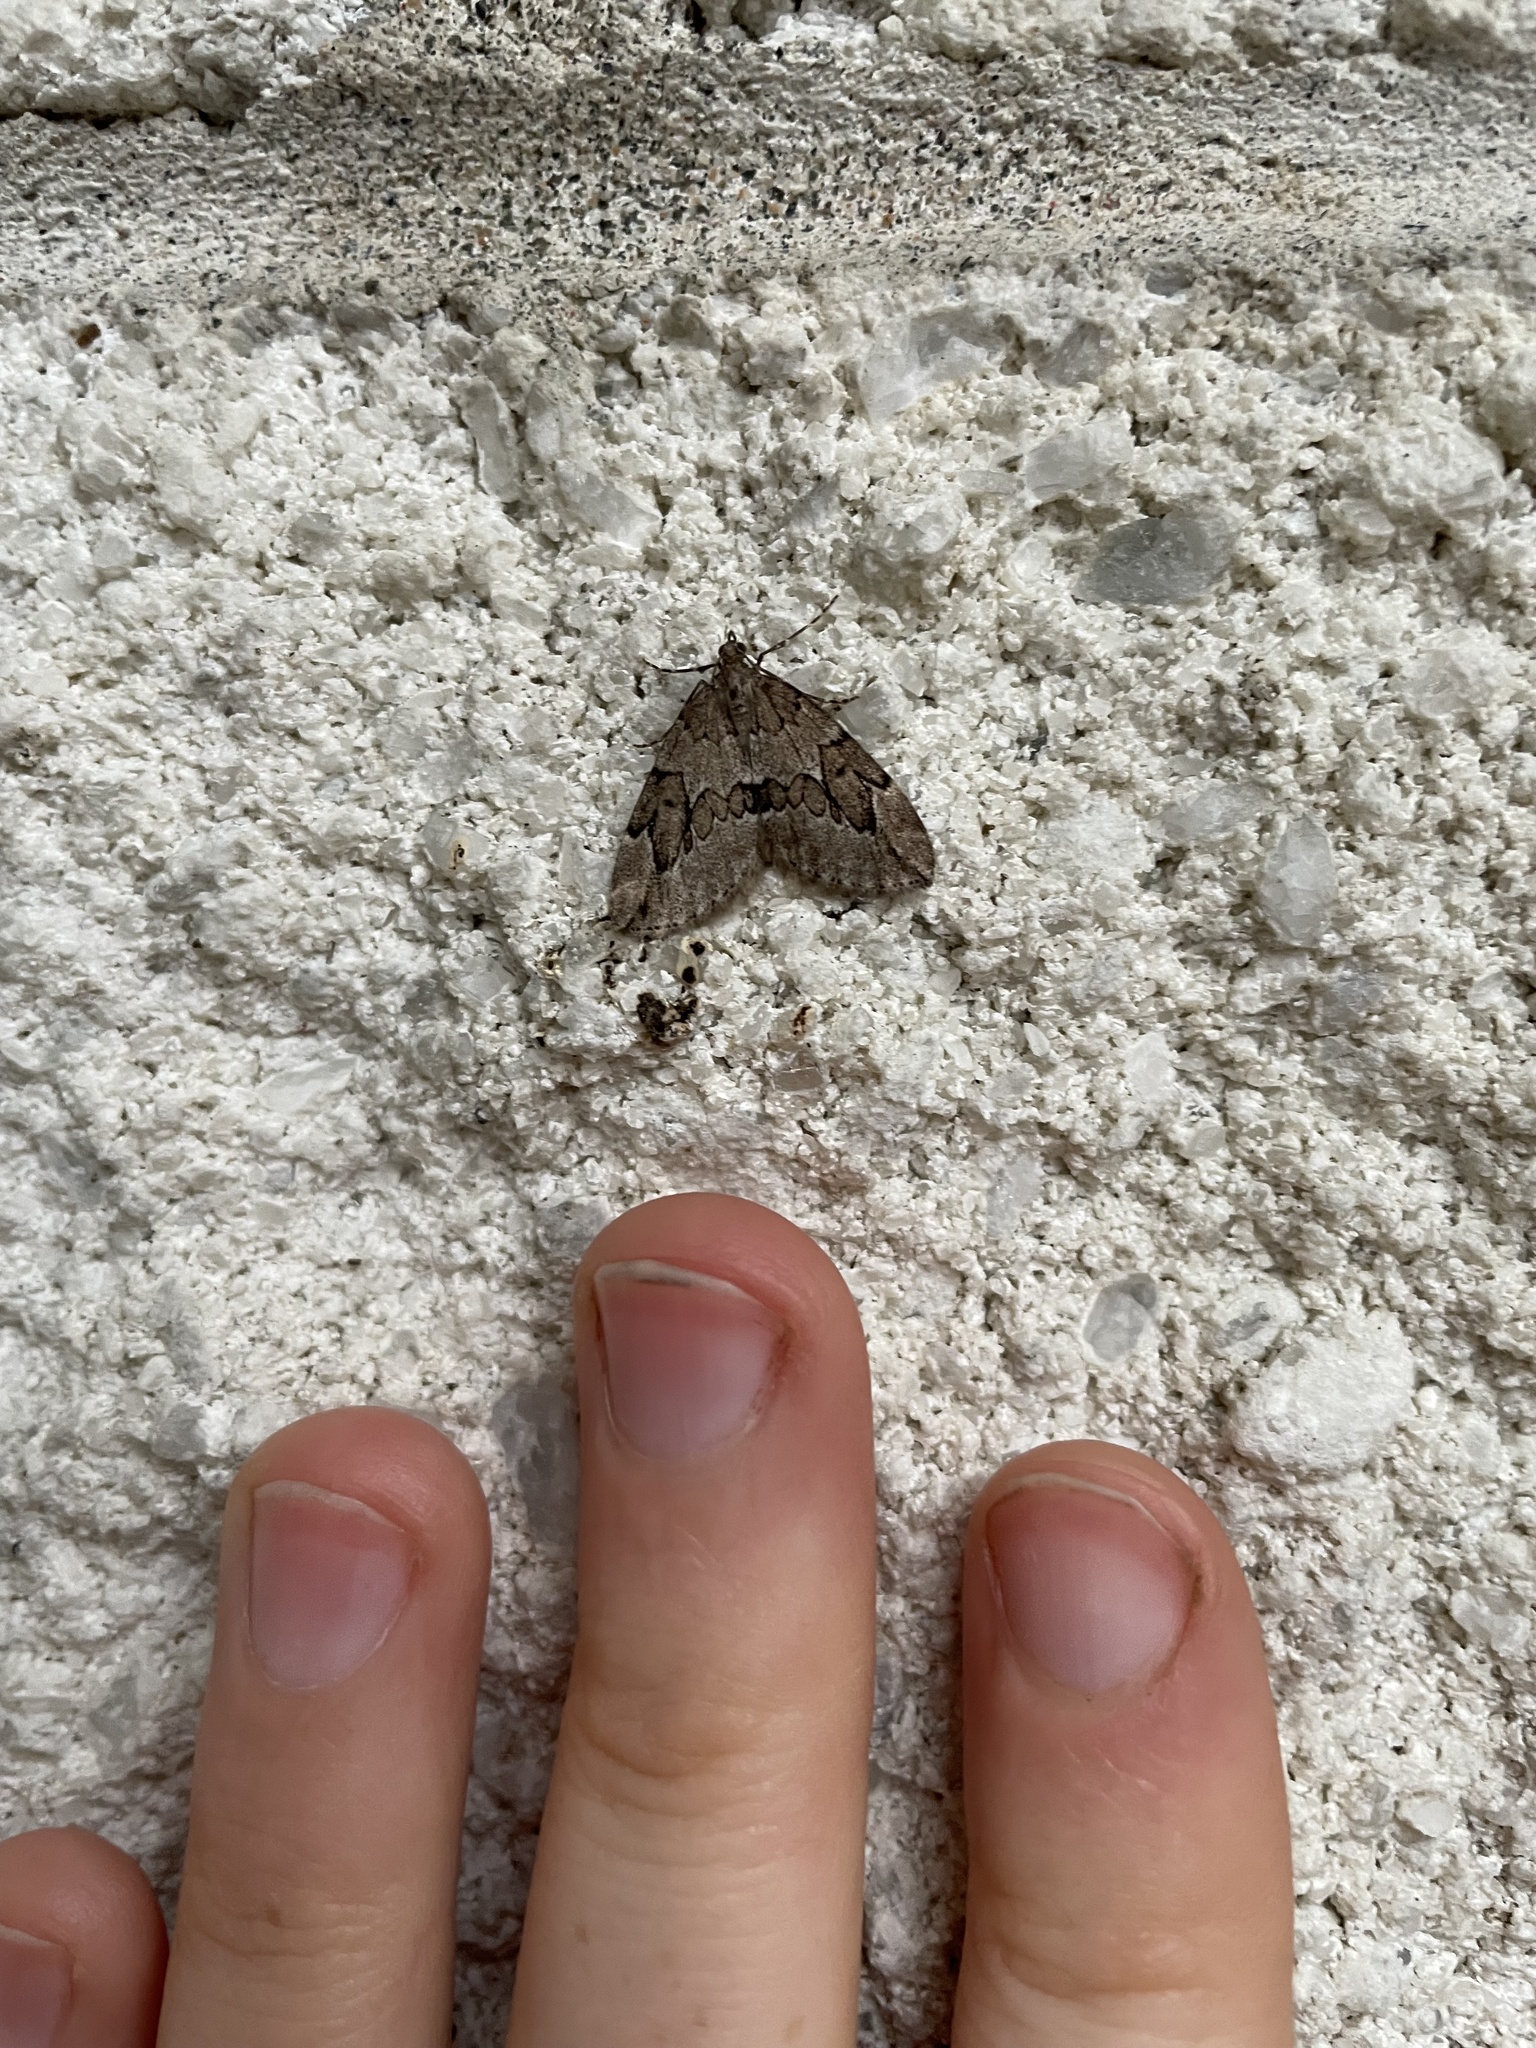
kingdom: Animalia
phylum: Arthropoda
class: Insecta
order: Lepidoptera
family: Geometridae
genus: Thera
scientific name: Thera juniperata
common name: Juniper carpet
